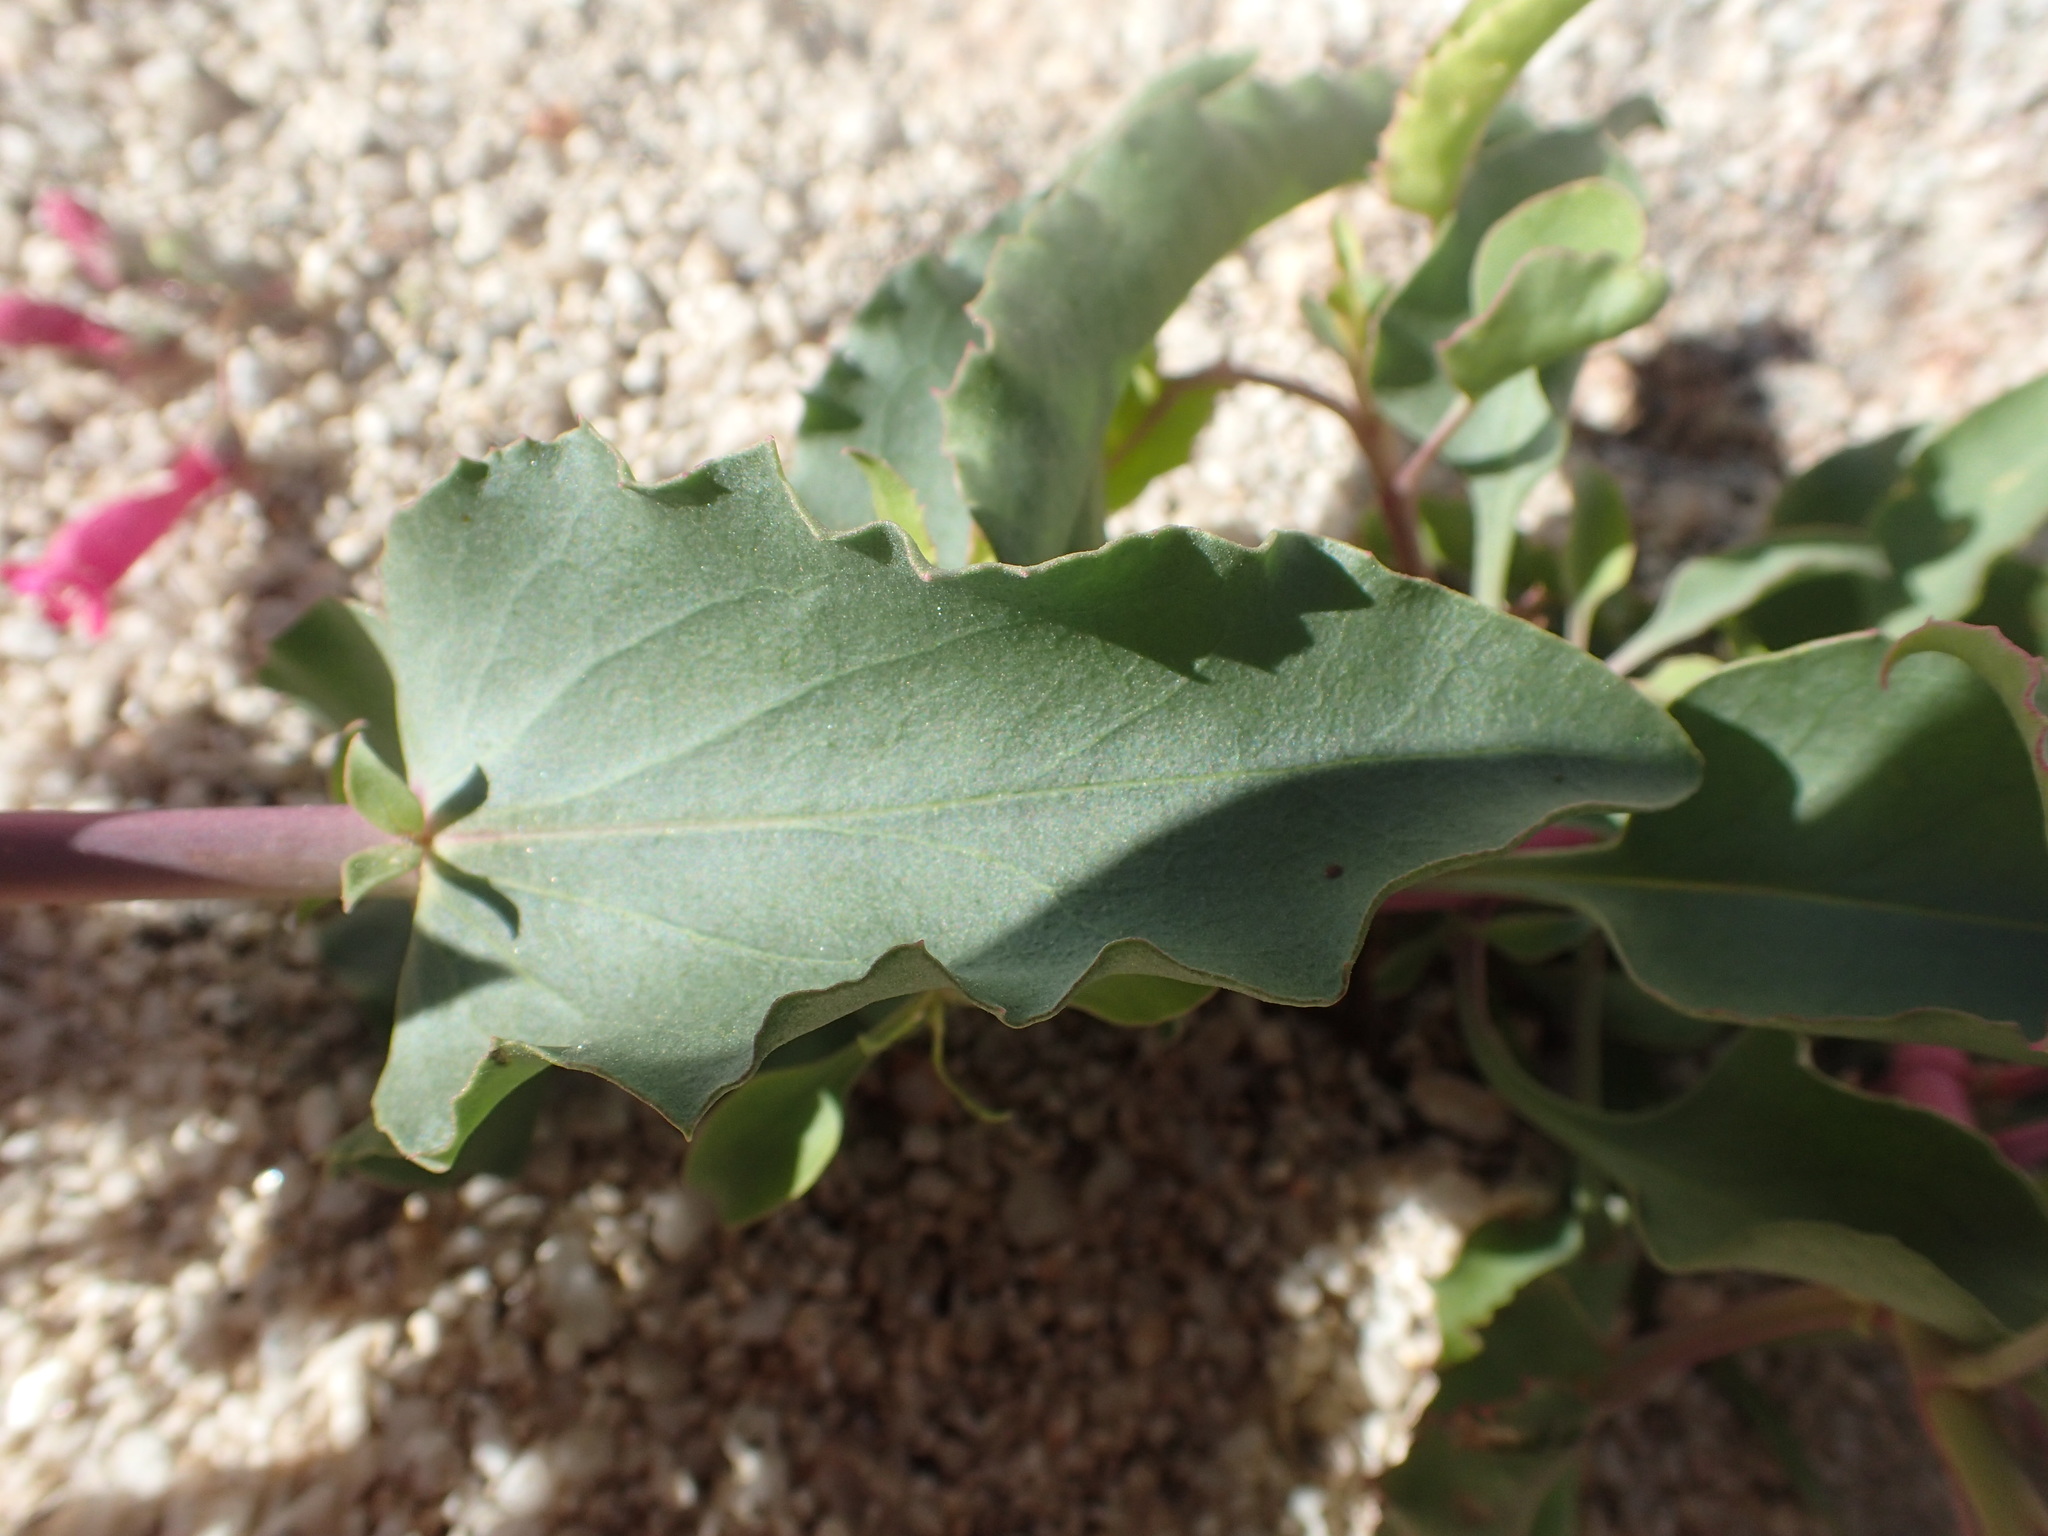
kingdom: Plantae
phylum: Tracheophyta
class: Magnoliopsida
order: Lamiales
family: Plantaginaceae
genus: Penstemon
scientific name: Penstemon clevelandii
